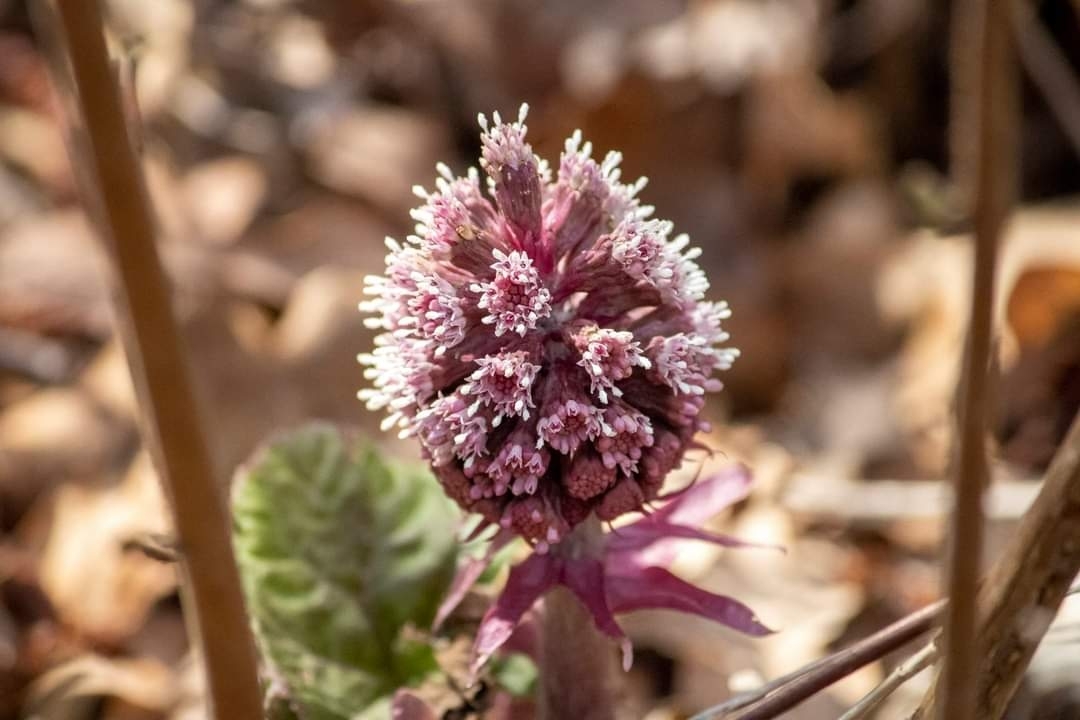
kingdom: Plantae
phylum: Tracheophyta
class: Magnoliopsida
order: Asterales
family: Asteraceae
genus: Petasites
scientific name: Petasites hybridus
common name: Butterbur
